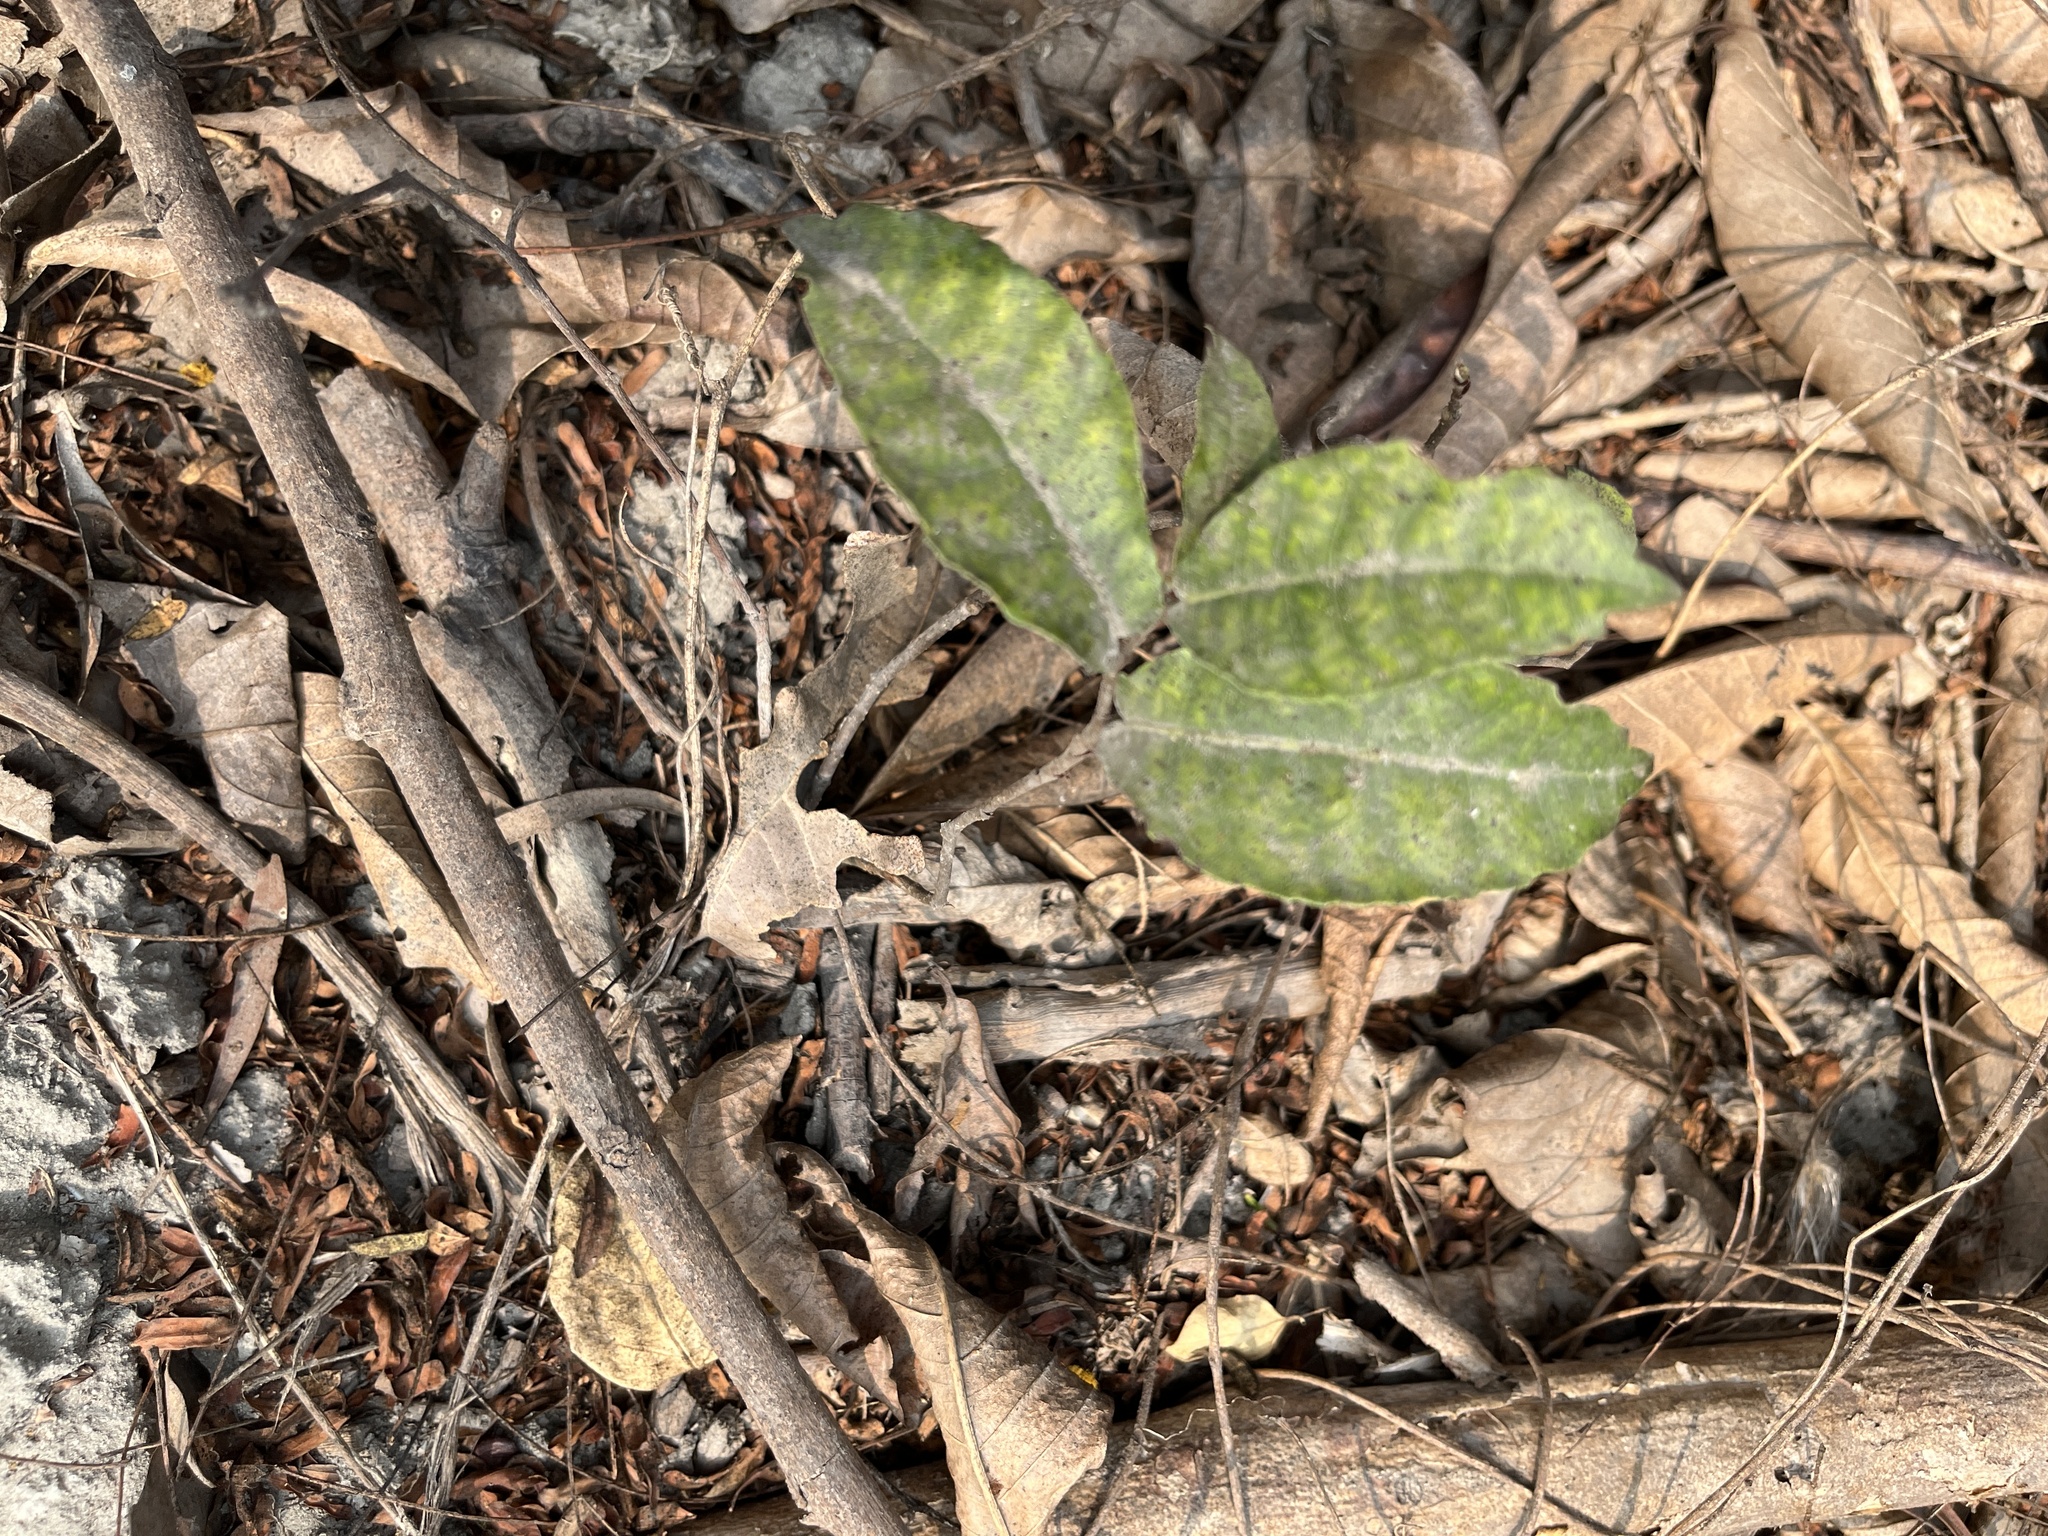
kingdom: Plantae
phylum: Tracheophyta
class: Magnoliopsida
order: Rosales
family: Moraceae
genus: Malaisia
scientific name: Malaisia scandens
